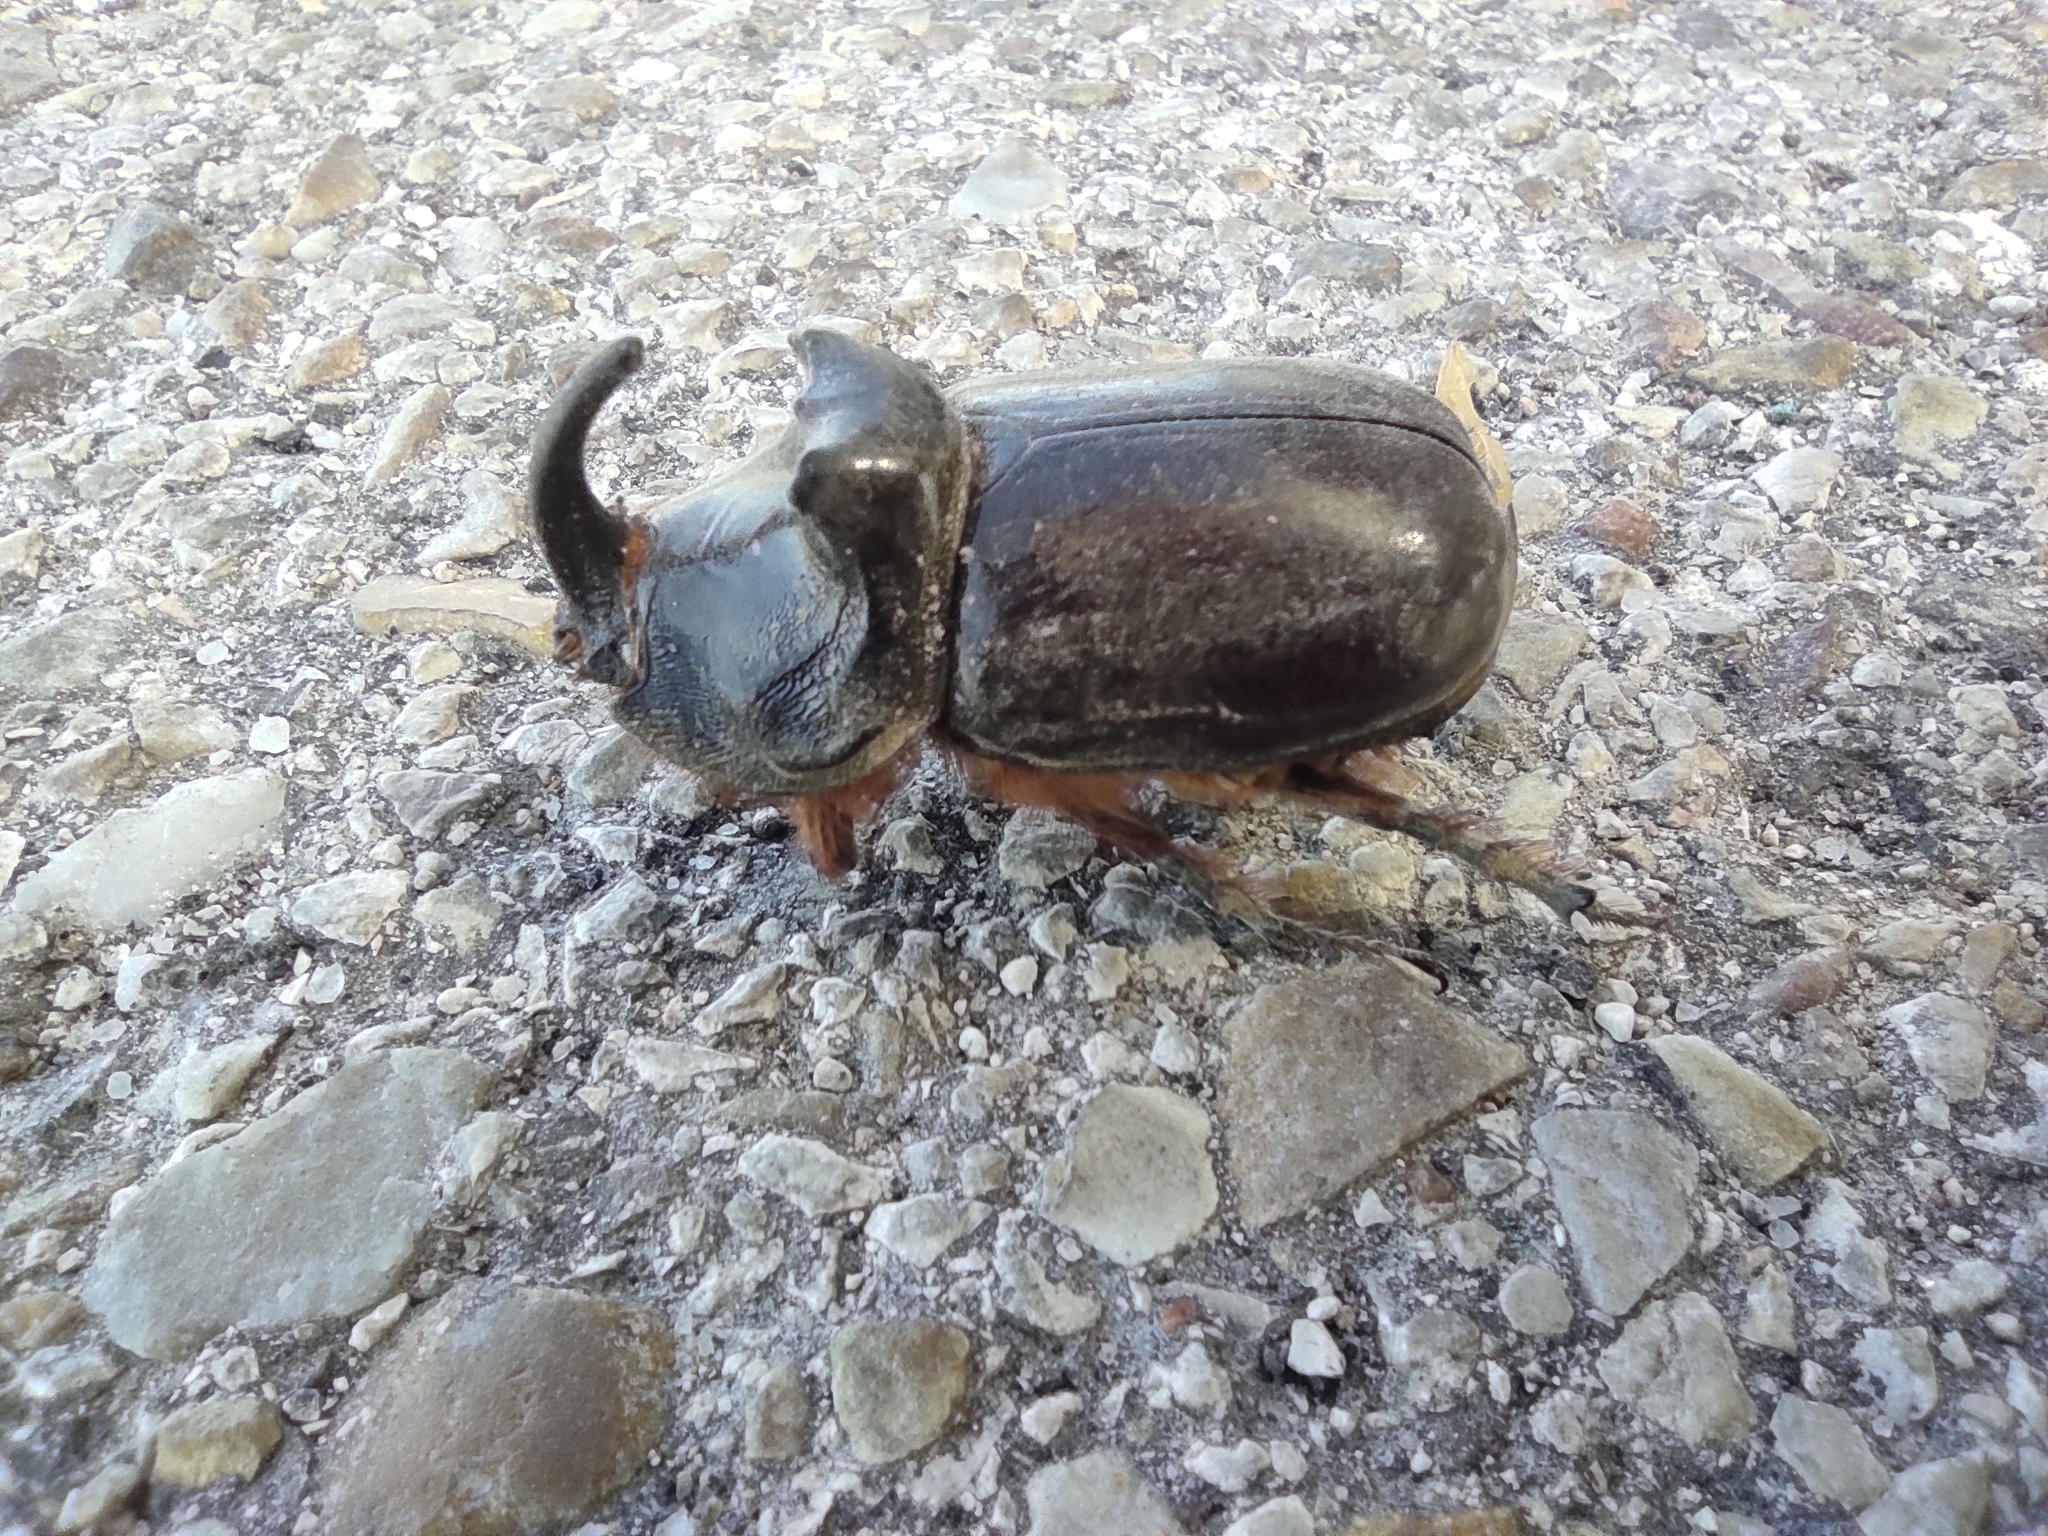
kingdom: Animalia
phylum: Arthropoda
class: Insecta
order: Coleoptera
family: Scarabaeidae
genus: Oryctes
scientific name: Oryctes nasicornis
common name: European rhinoceros beetle
